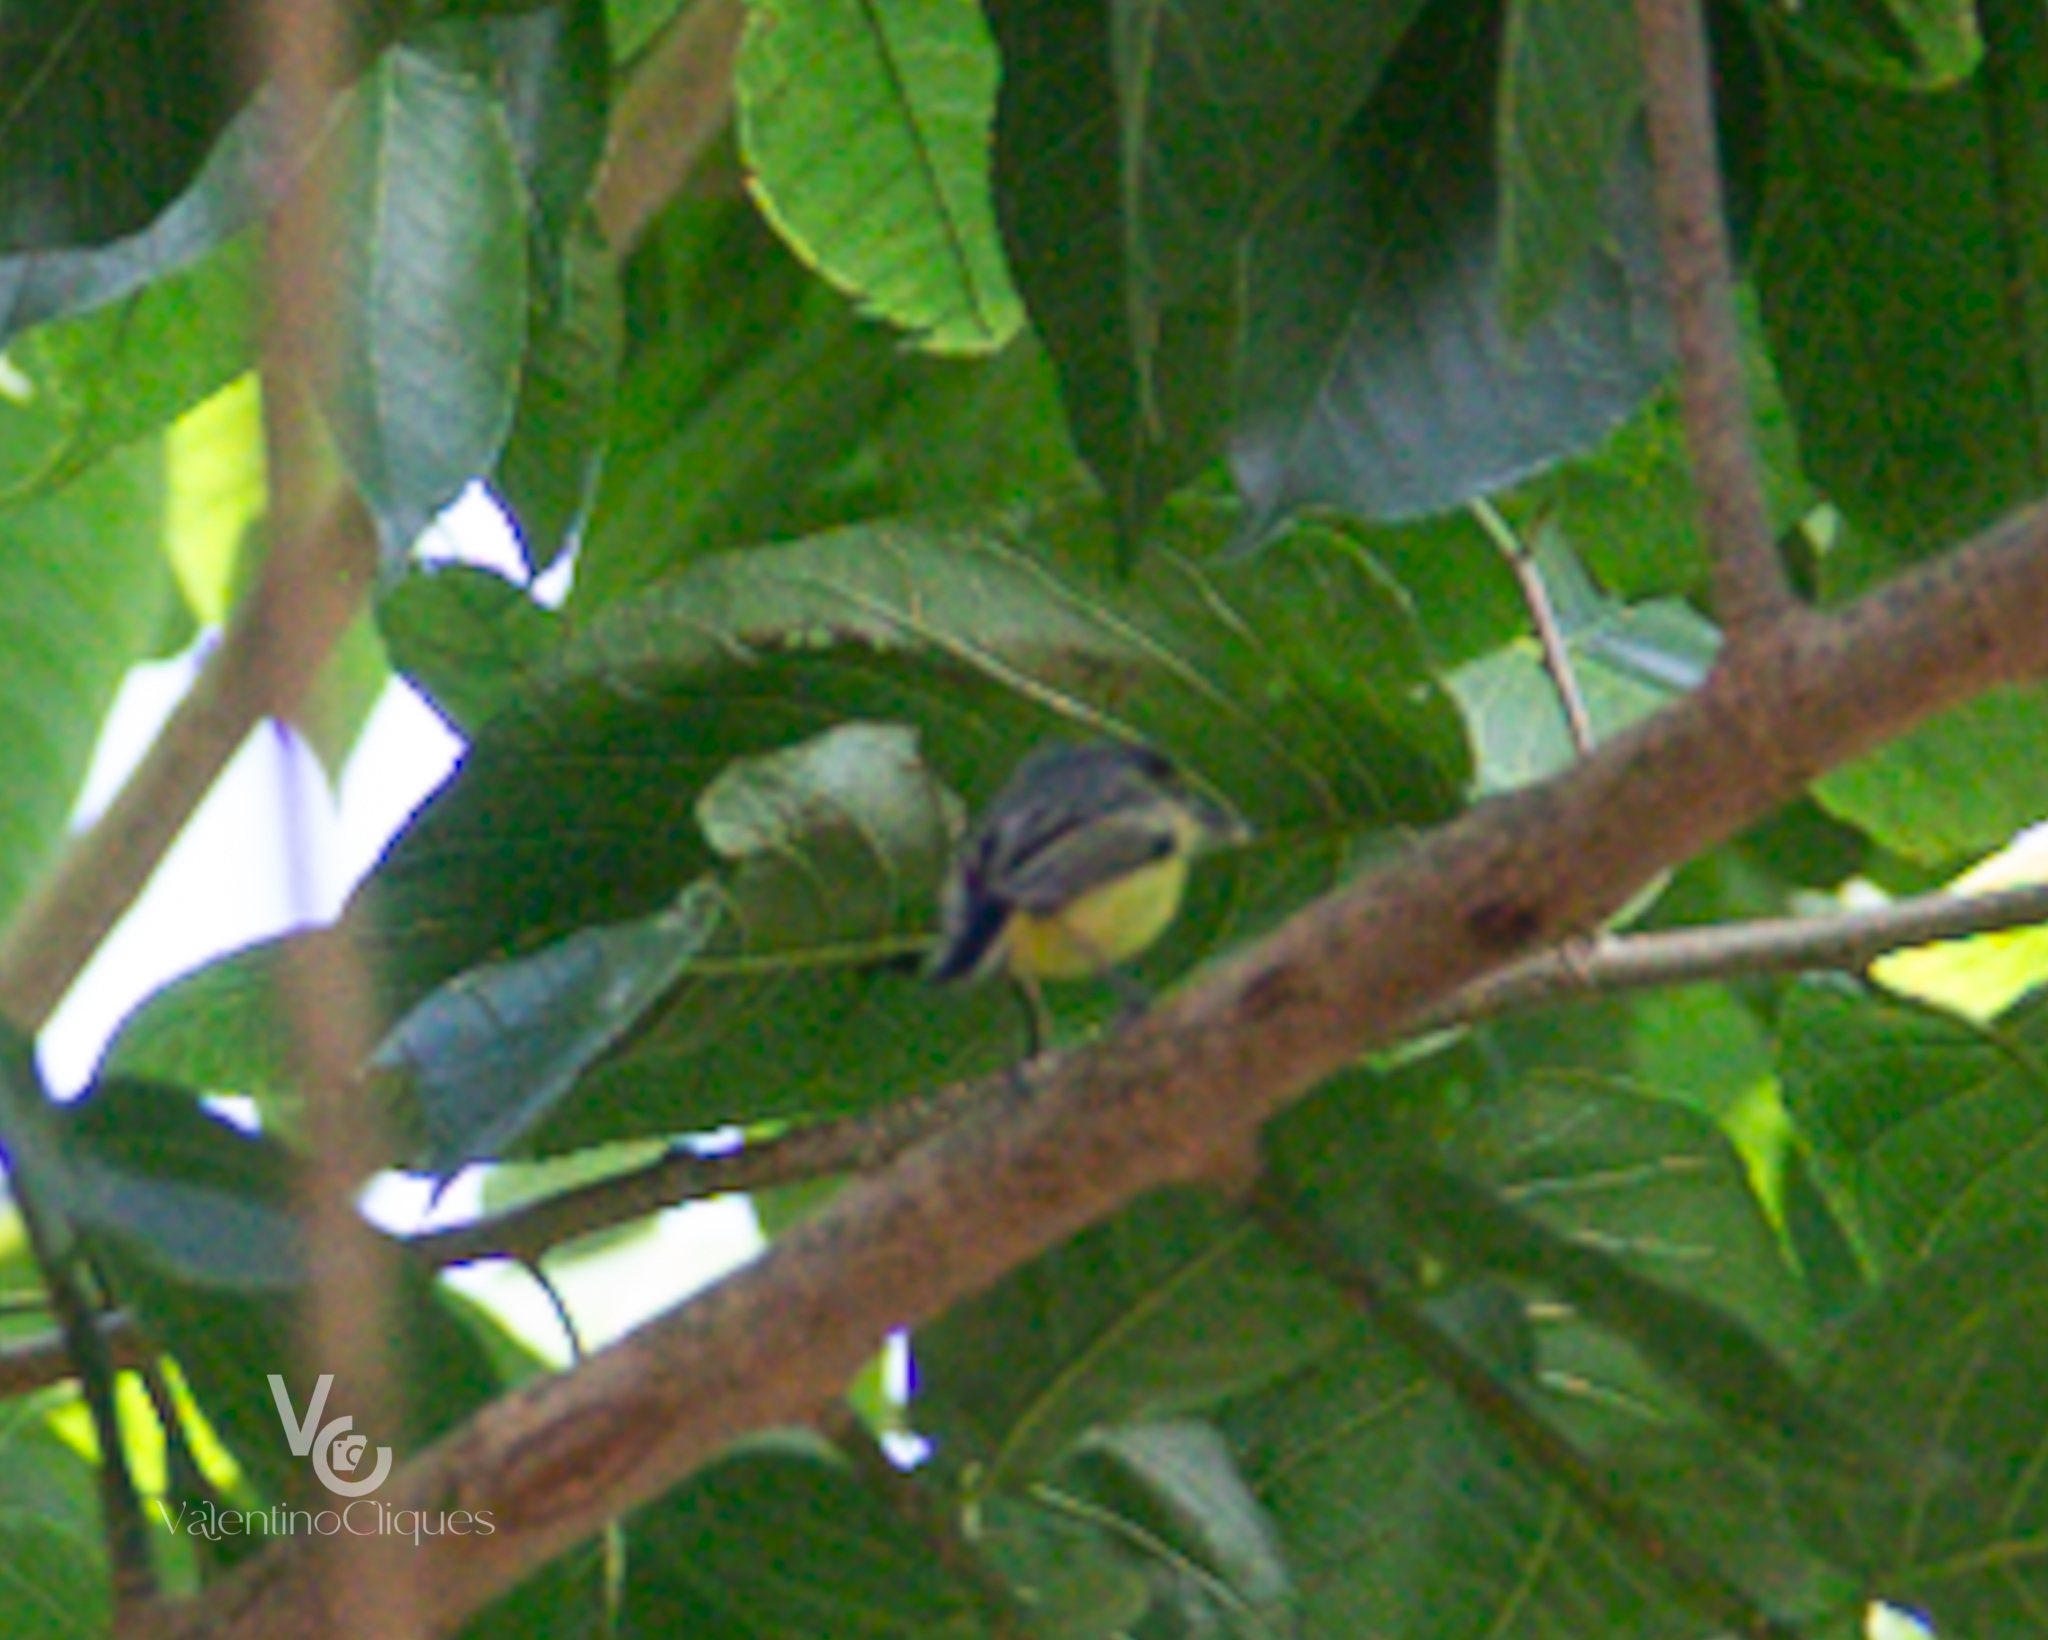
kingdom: Animalia
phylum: Chordata
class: Aves
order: Passeriformes
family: Tyrannidae
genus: Todirostrum
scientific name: Todirostrum cinereum
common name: Common tody-flycatcher
